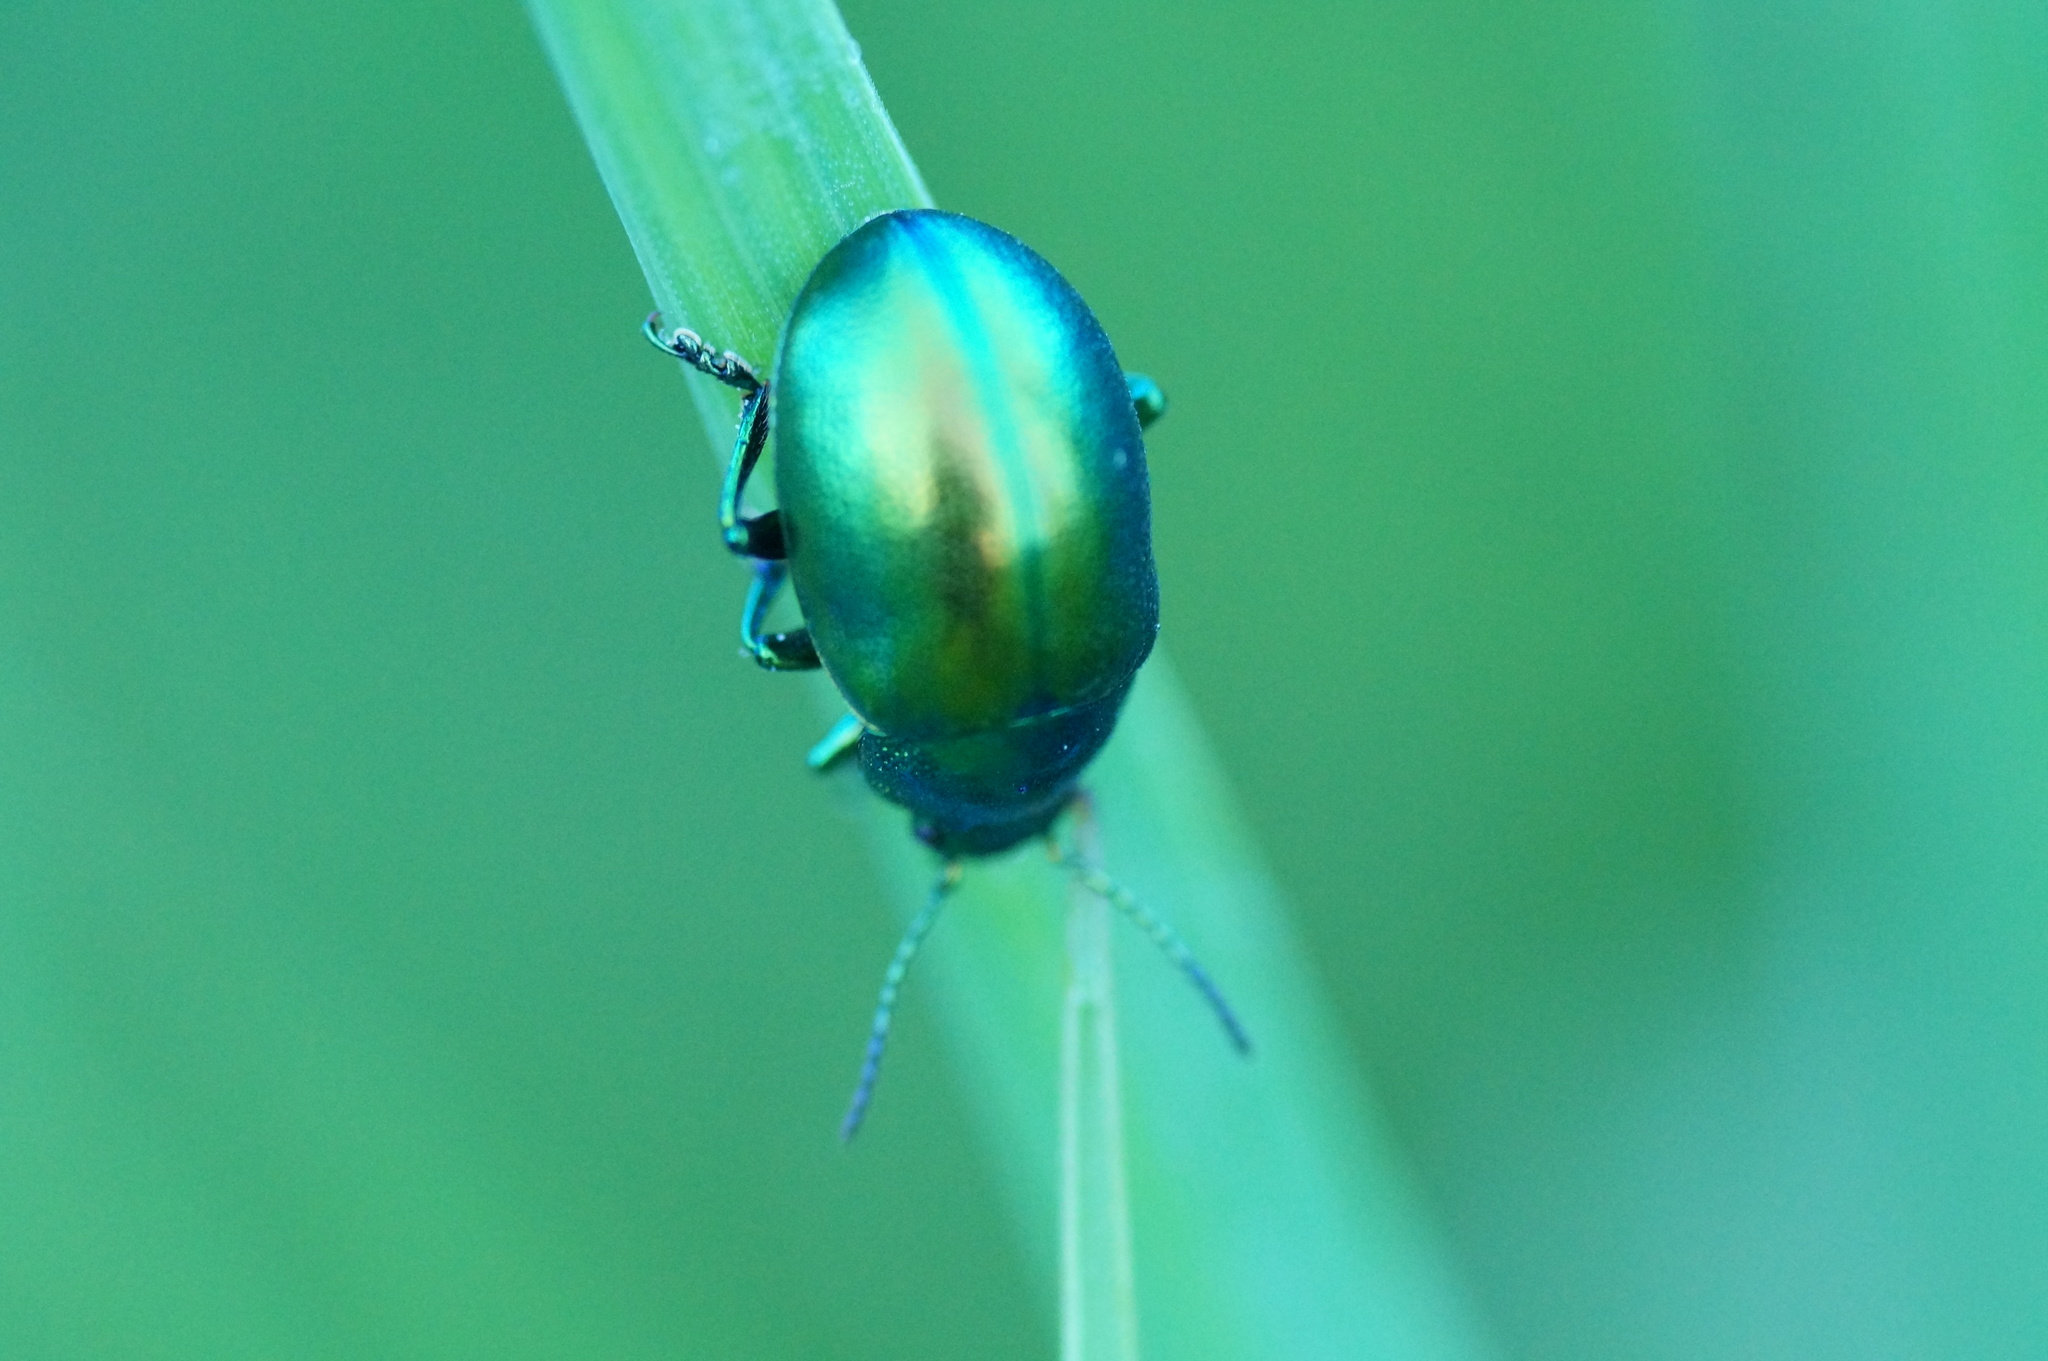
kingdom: Animalia
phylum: Arthropoda
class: Insecta
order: Coleoptera
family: Chrysomelidae
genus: Chrysolina
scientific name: Chrysolina graminis
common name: Tansey beetle
